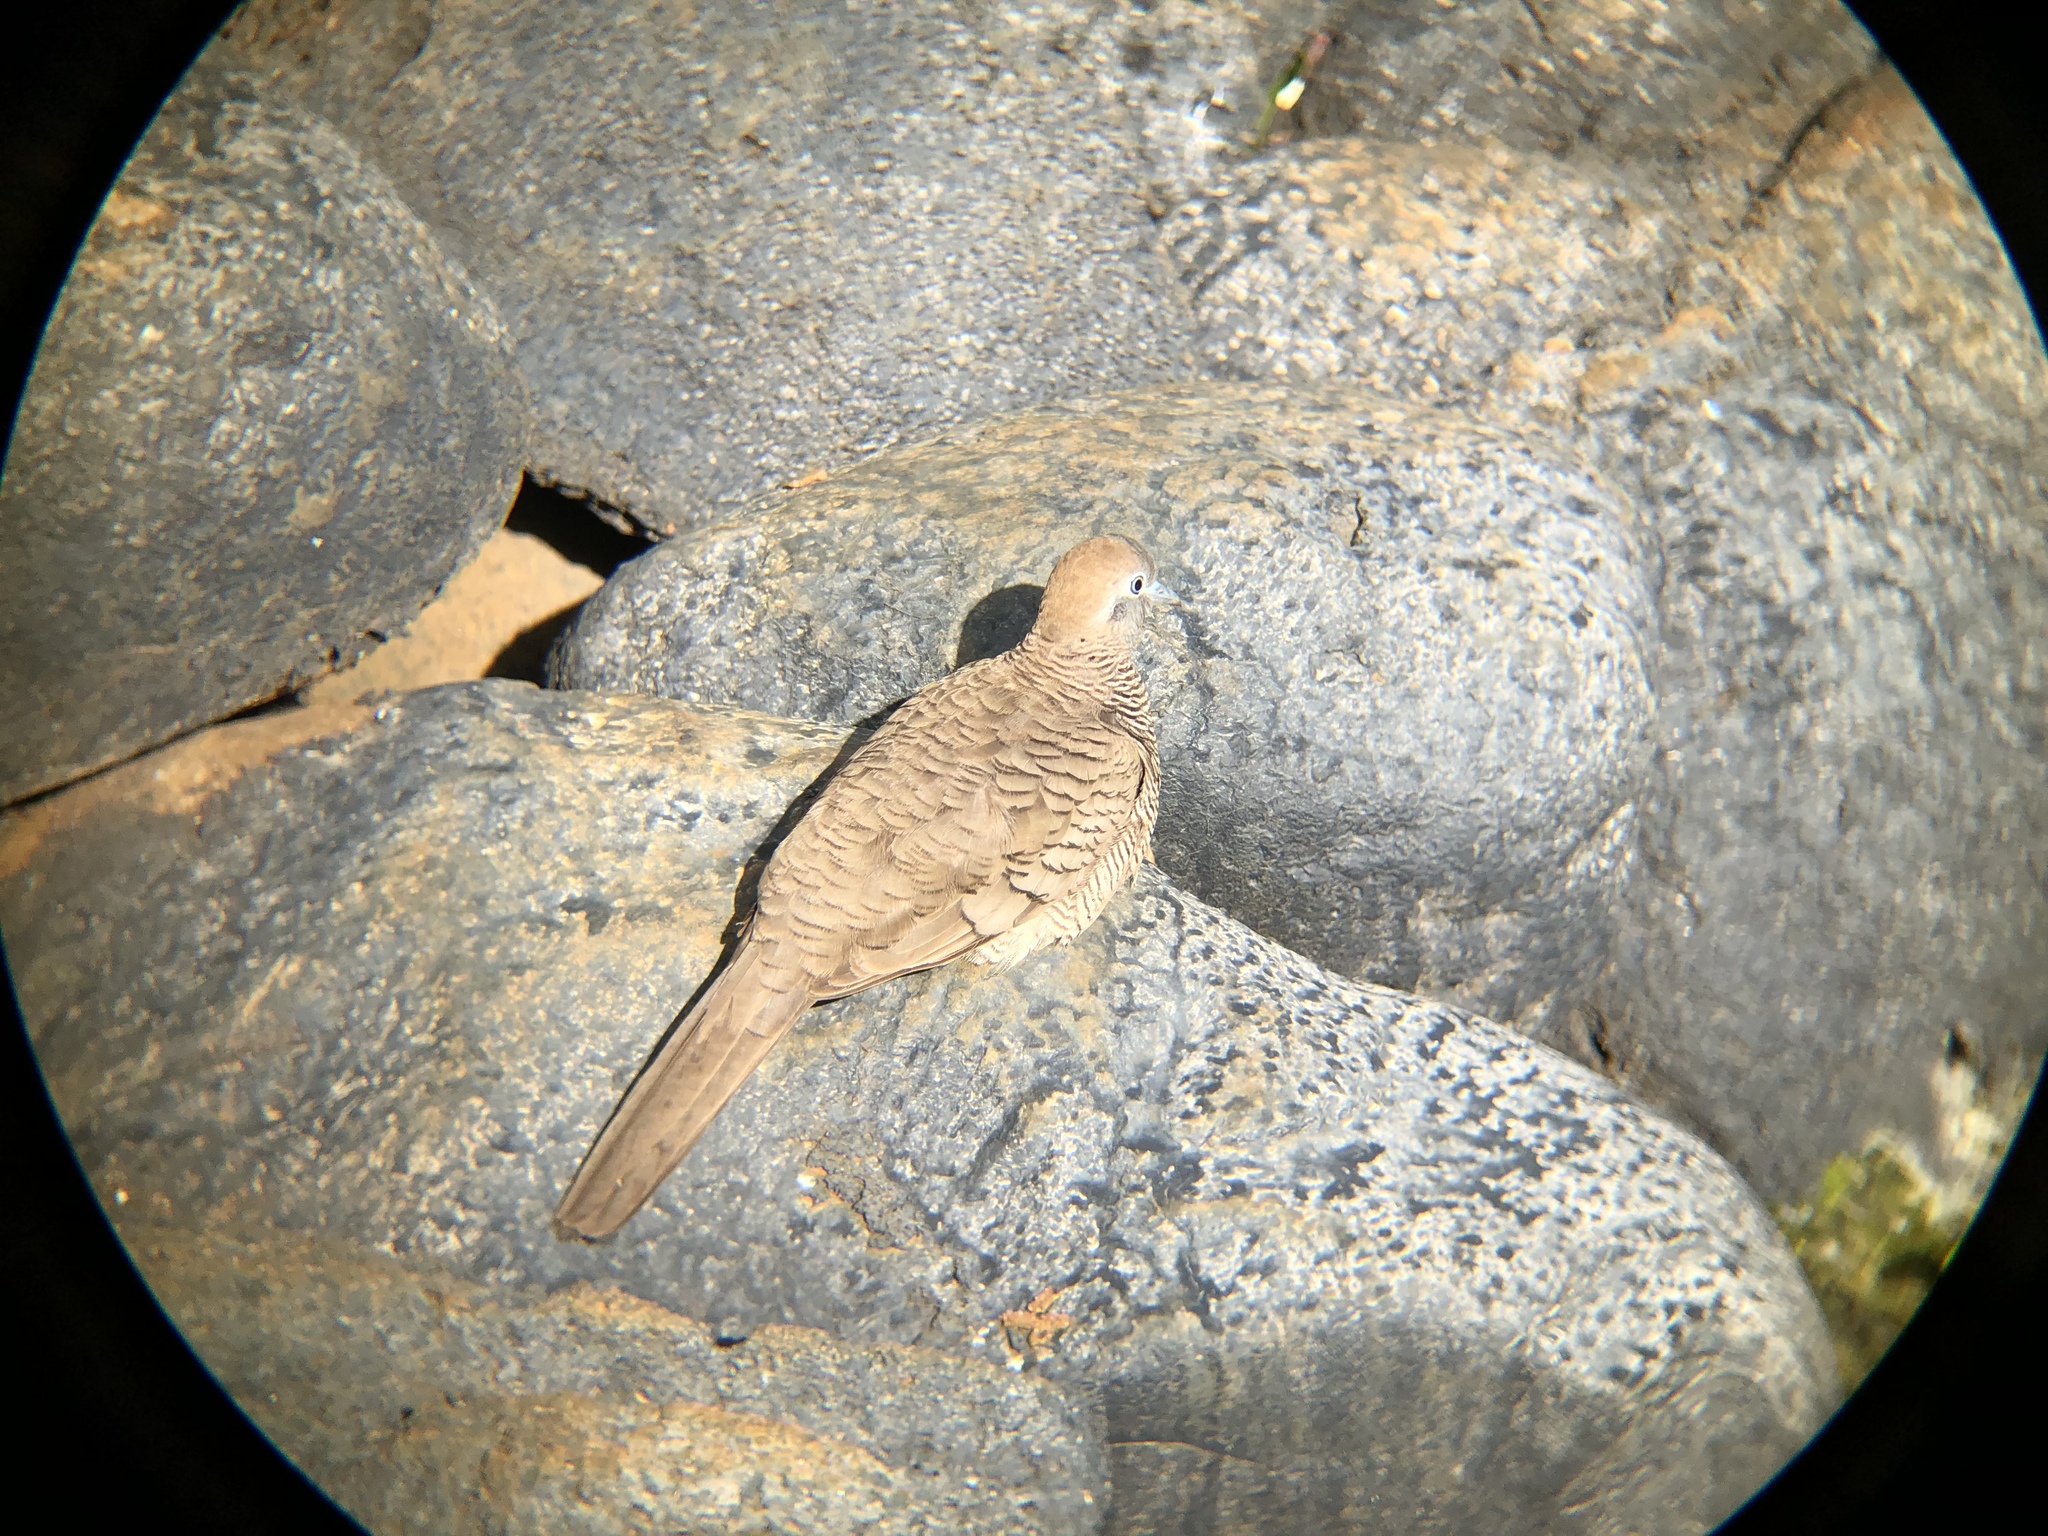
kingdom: Animalia
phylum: Chordata
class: Aves
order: Columbiformes
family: Columbidae
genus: Geopelia
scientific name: Geopelia striata
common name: Zebra dove
